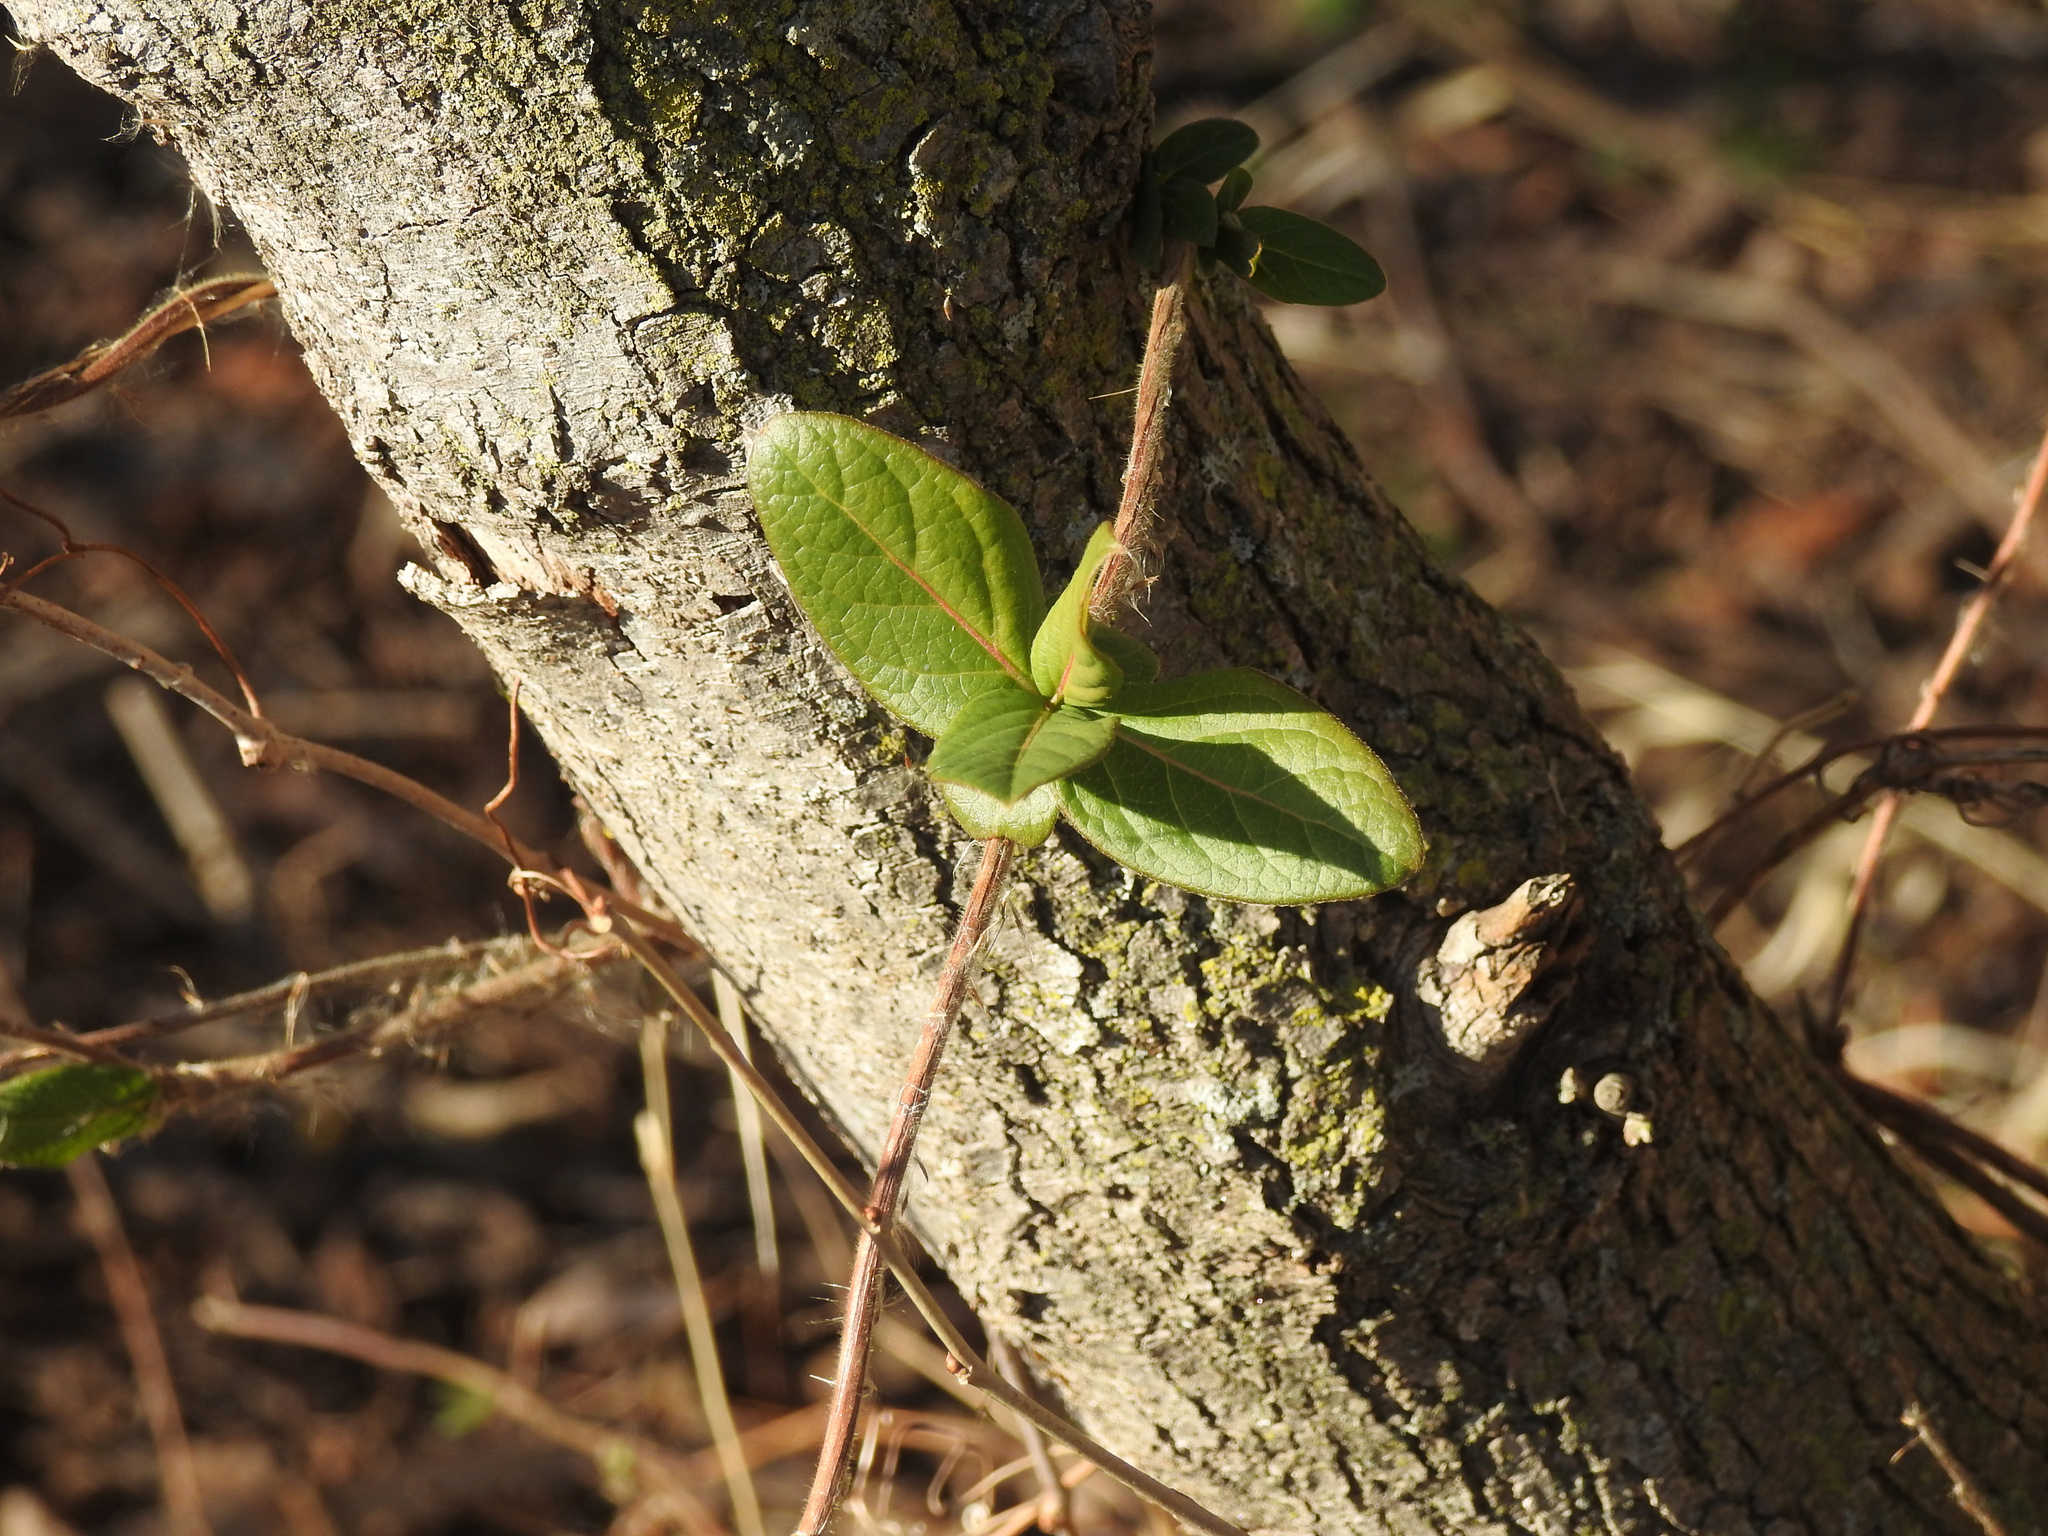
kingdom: Plantae
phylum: Tracheophyta
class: Magnoliopsida
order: Dipsacales
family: Caprifoliaceae
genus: Lonicera
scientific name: Lonicera japonica
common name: Japanese honeysuckle
